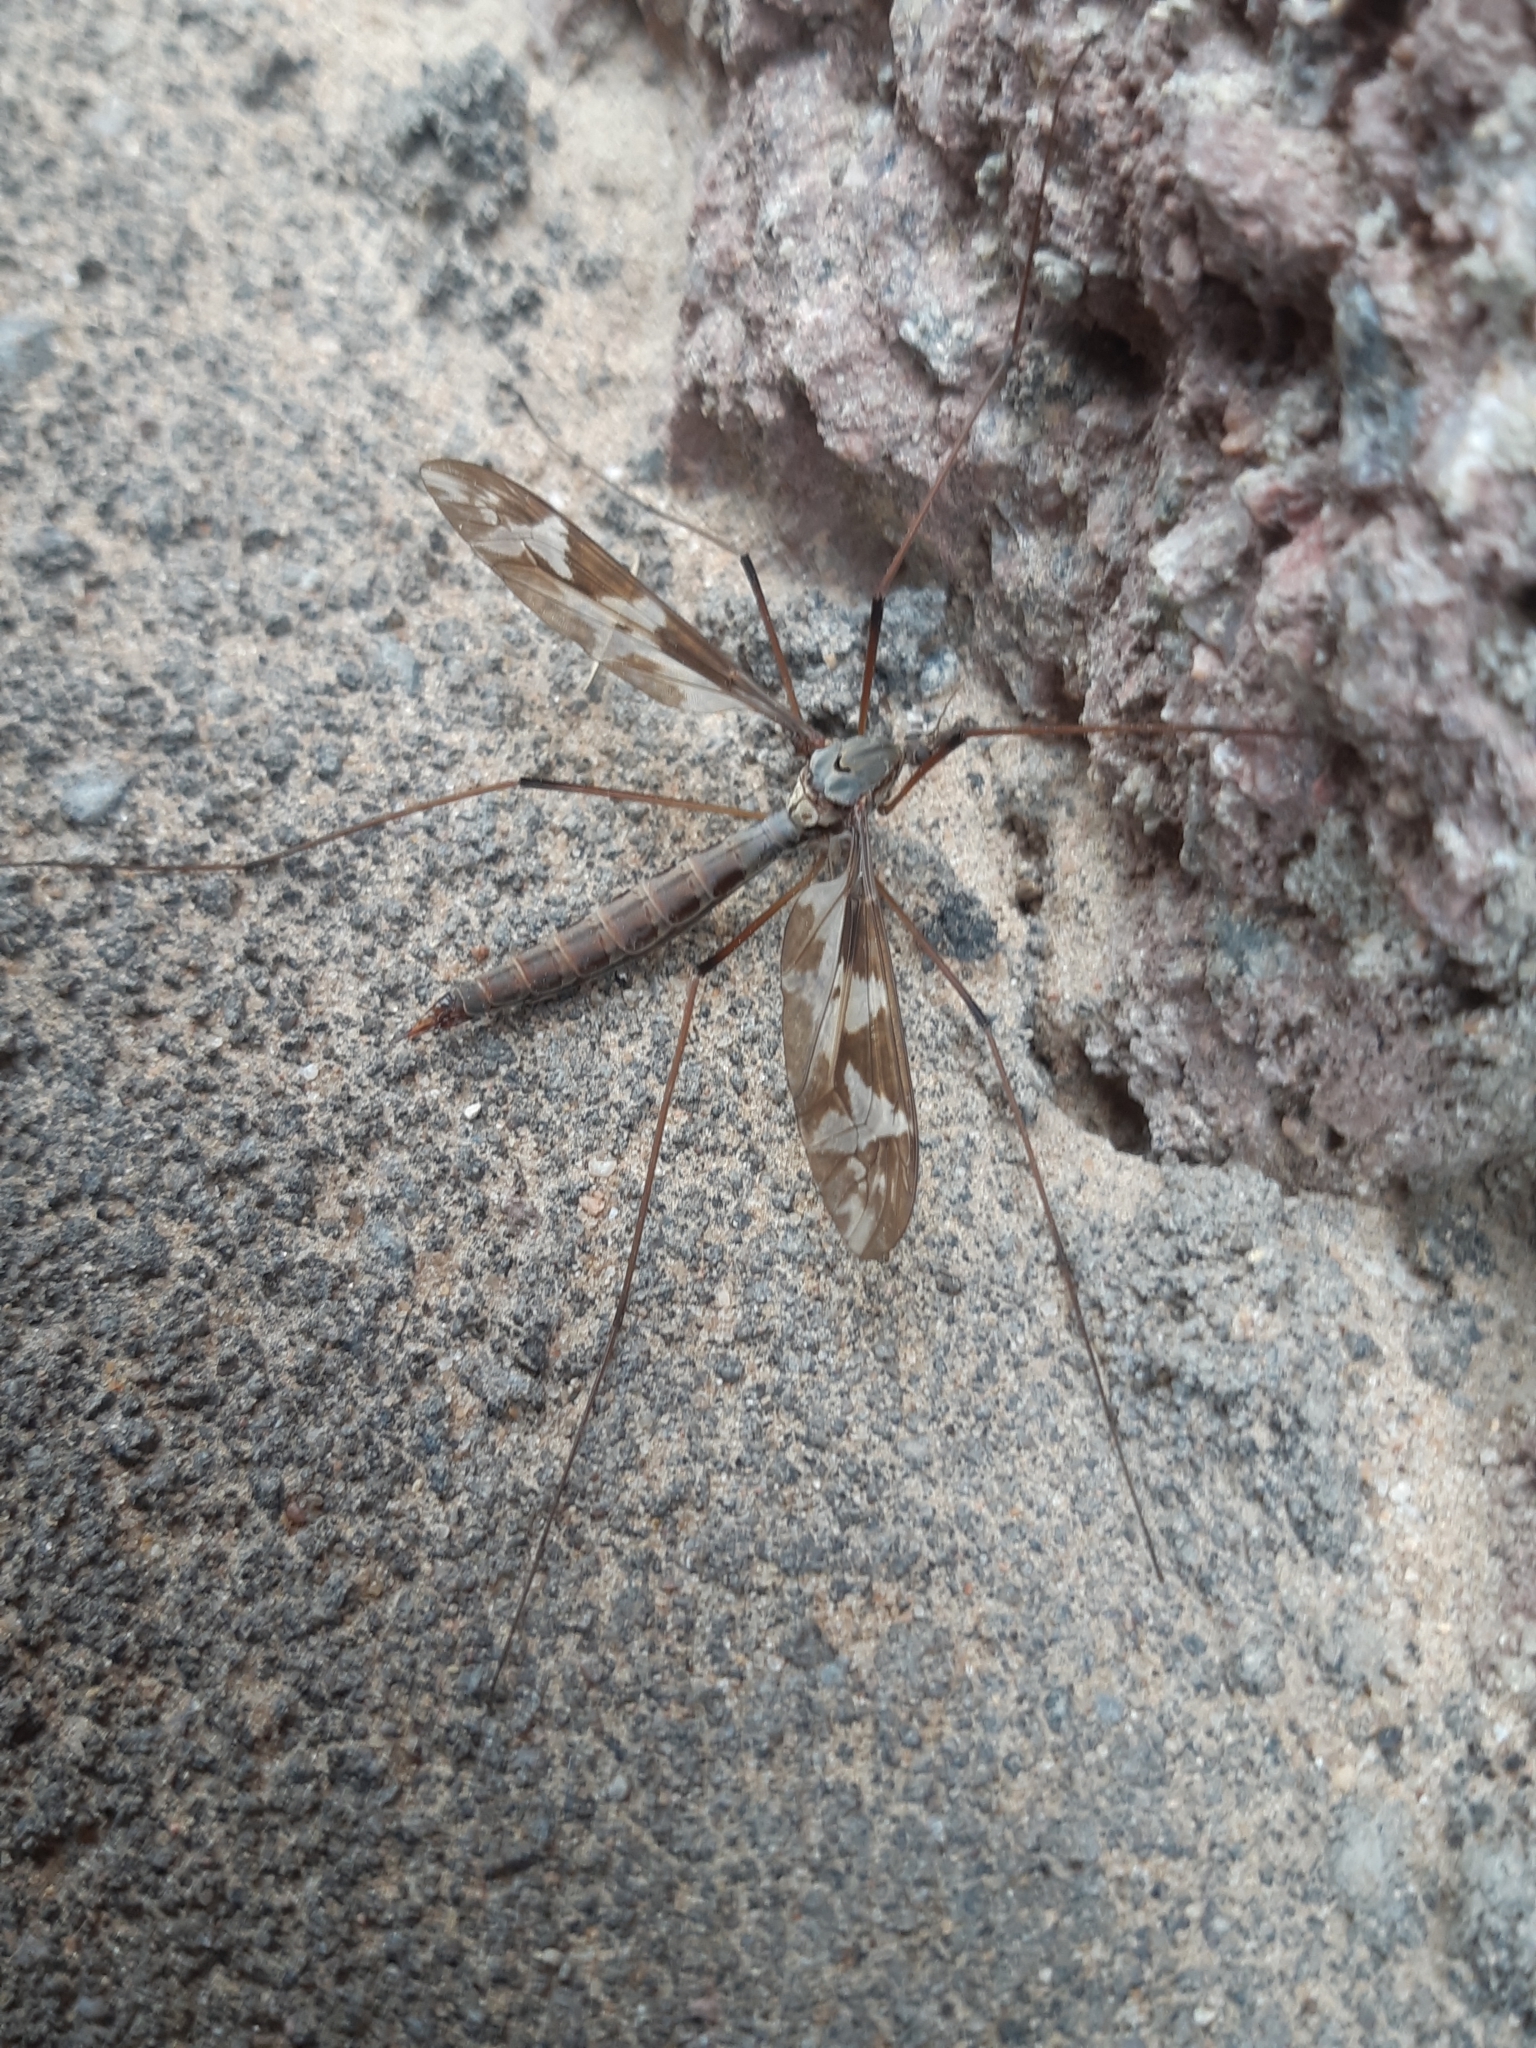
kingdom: Animalia
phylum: Arthropoda
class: Insecta
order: Diptera
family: Tipulidae
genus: Tipula
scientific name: Tipula maxima
